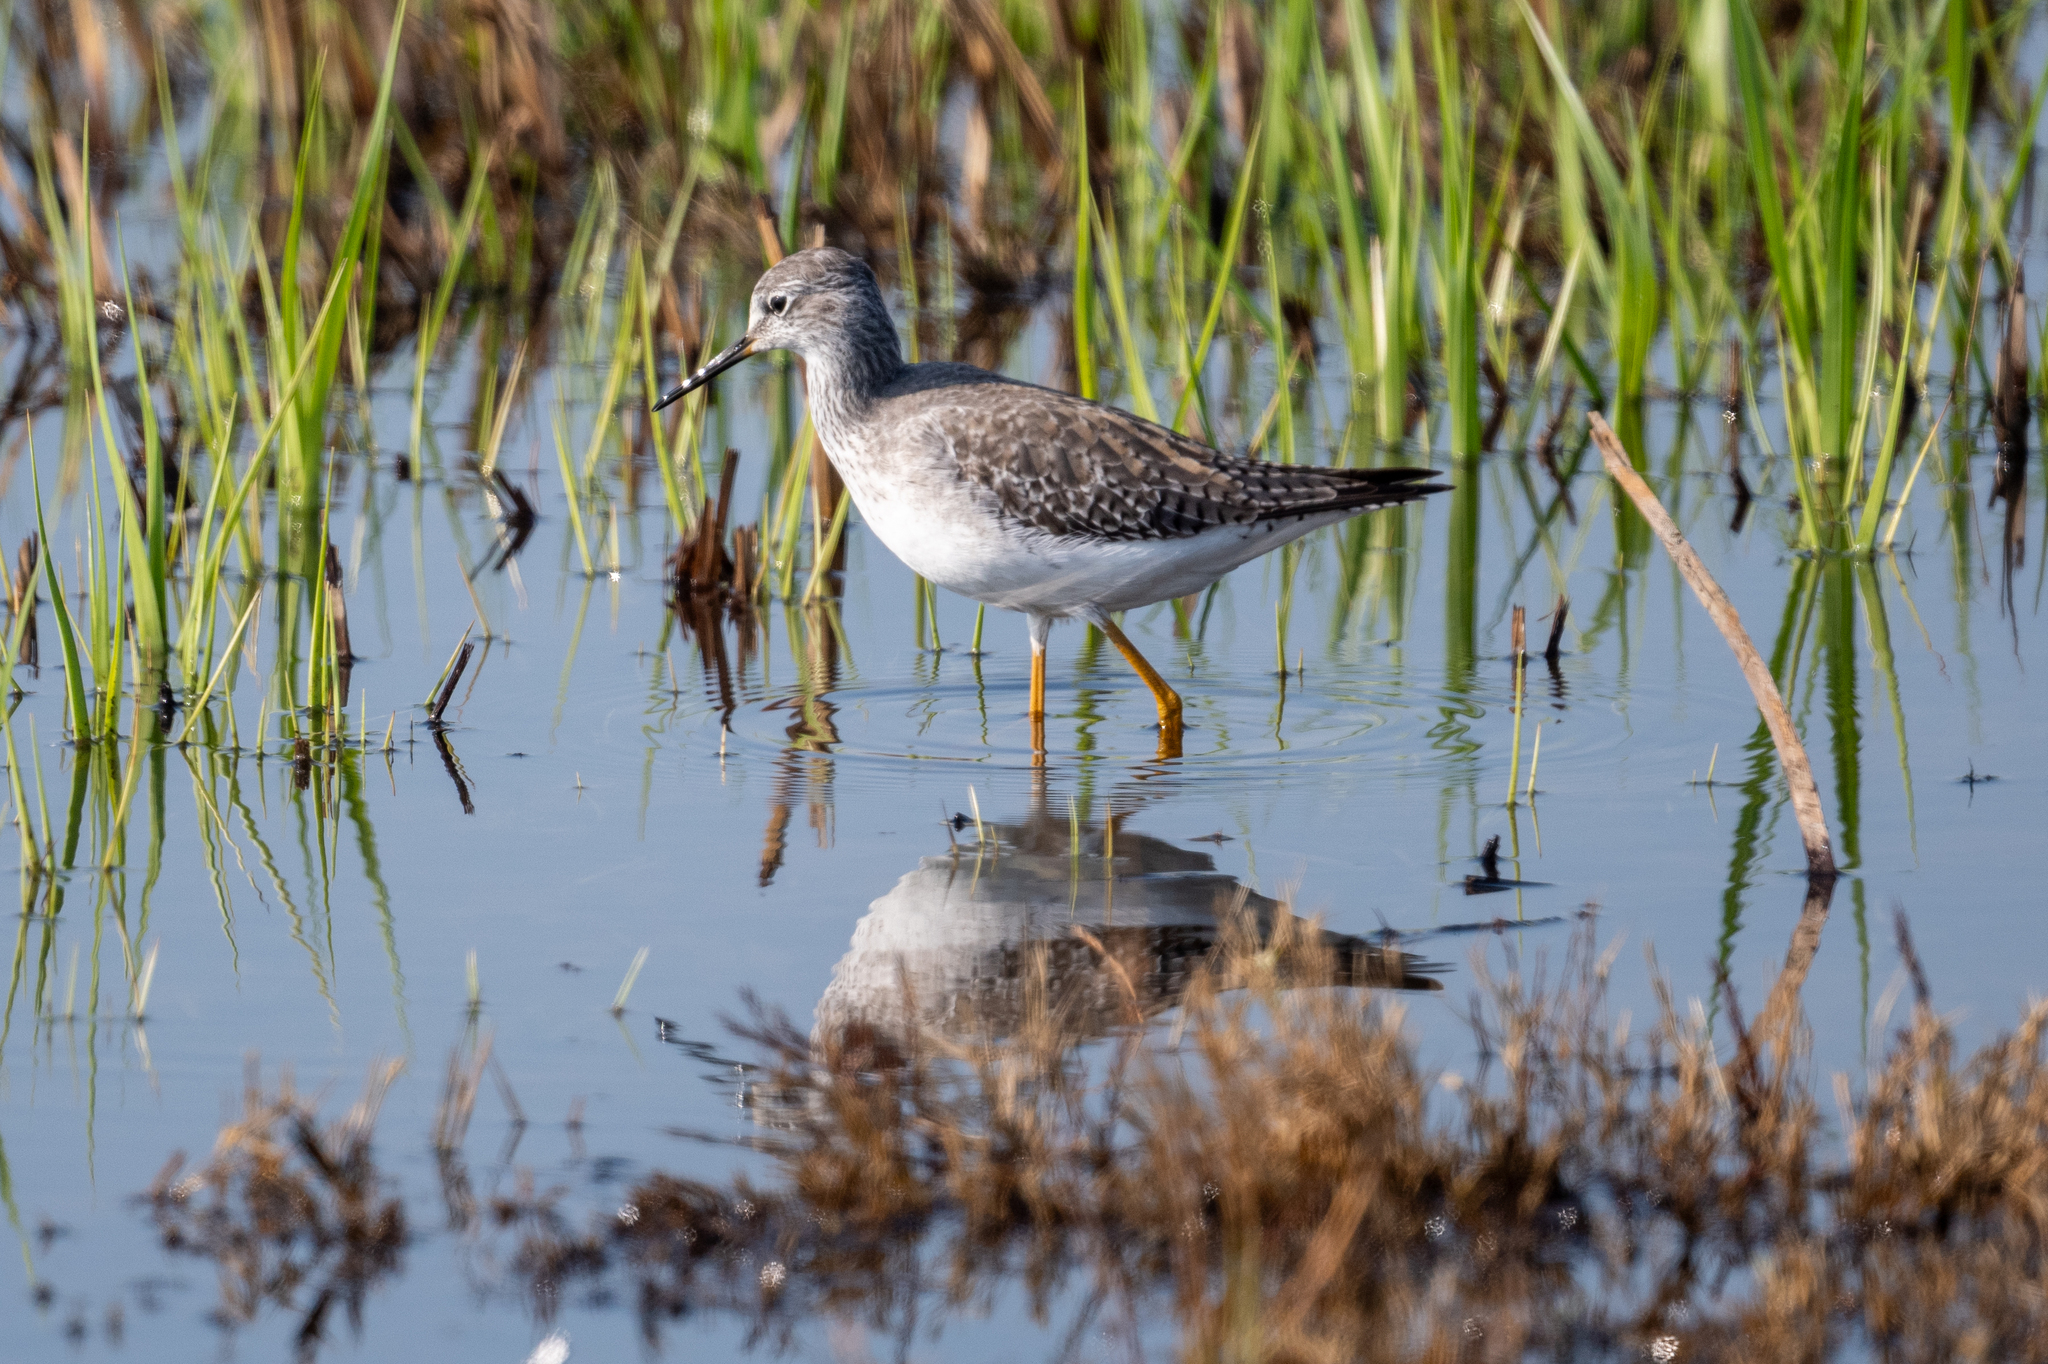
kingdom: Animalia
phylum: Chordata
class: Aves
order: Charadriiformes
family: Scolopacidae
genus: Tringa
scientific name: Tringa melanoleuca
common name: Greater yellowlegs
